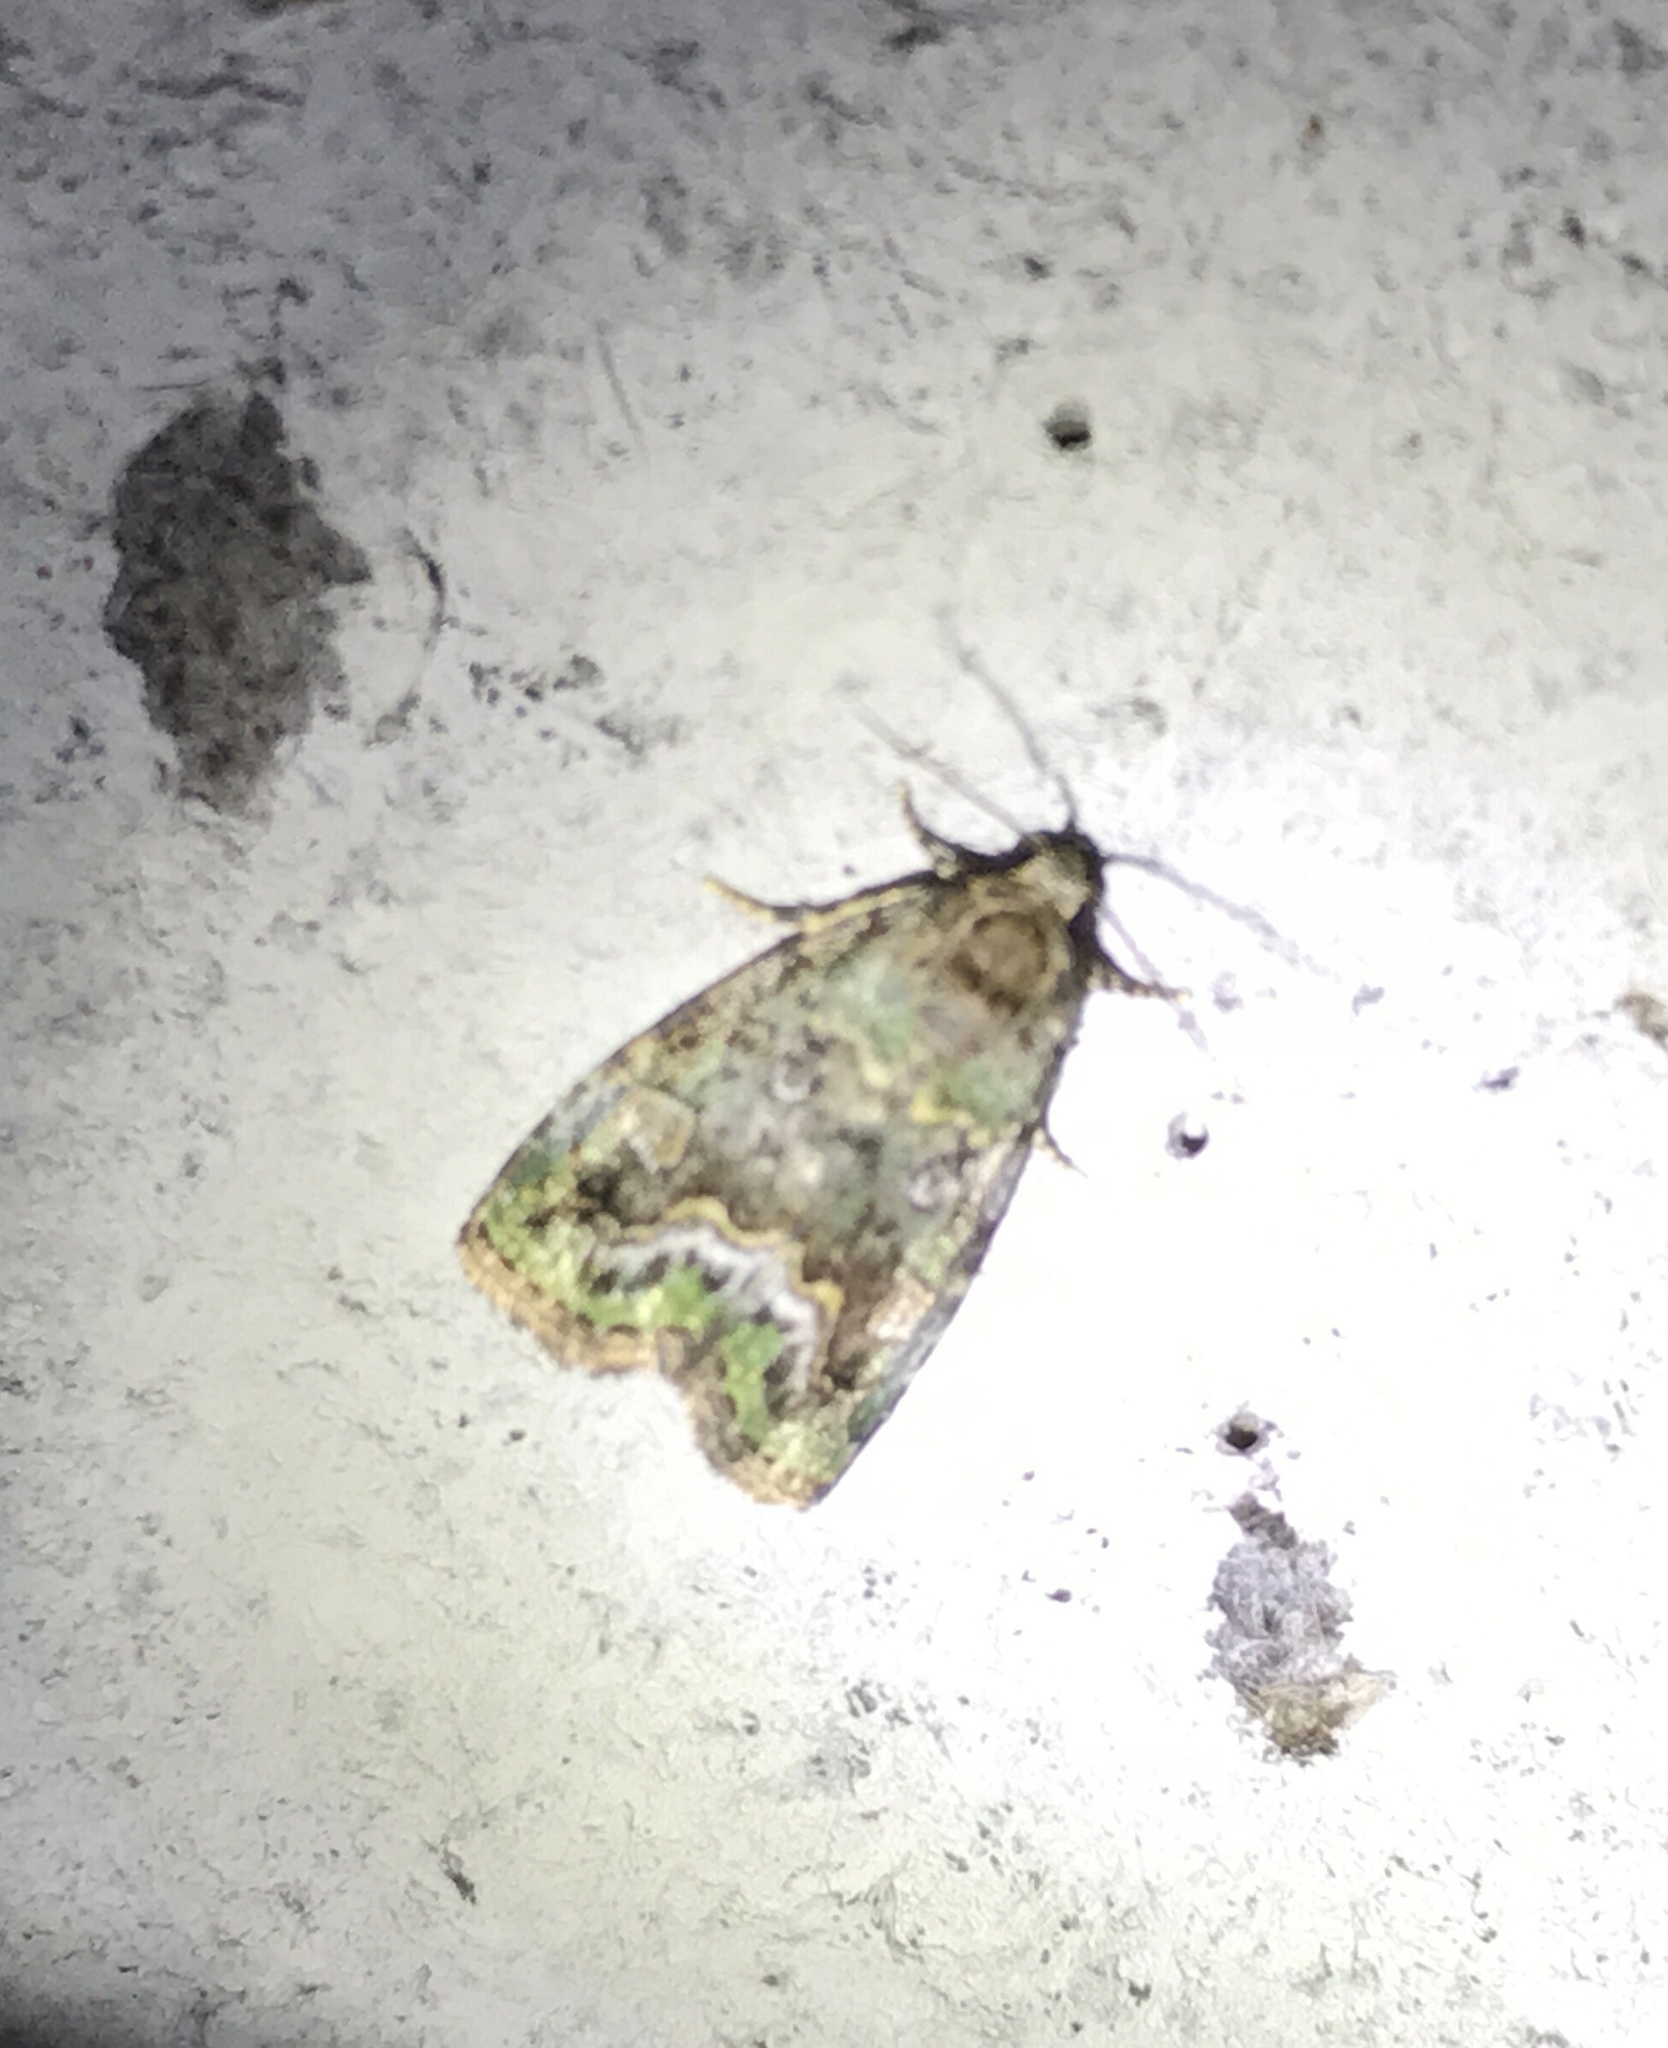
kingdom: Animalia
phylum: Arthropoda
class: Insecta
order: Lepidoptera
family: Noctuidae
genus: Lithacodia
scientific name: Lithacodia musta
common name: Small mossy glyph
